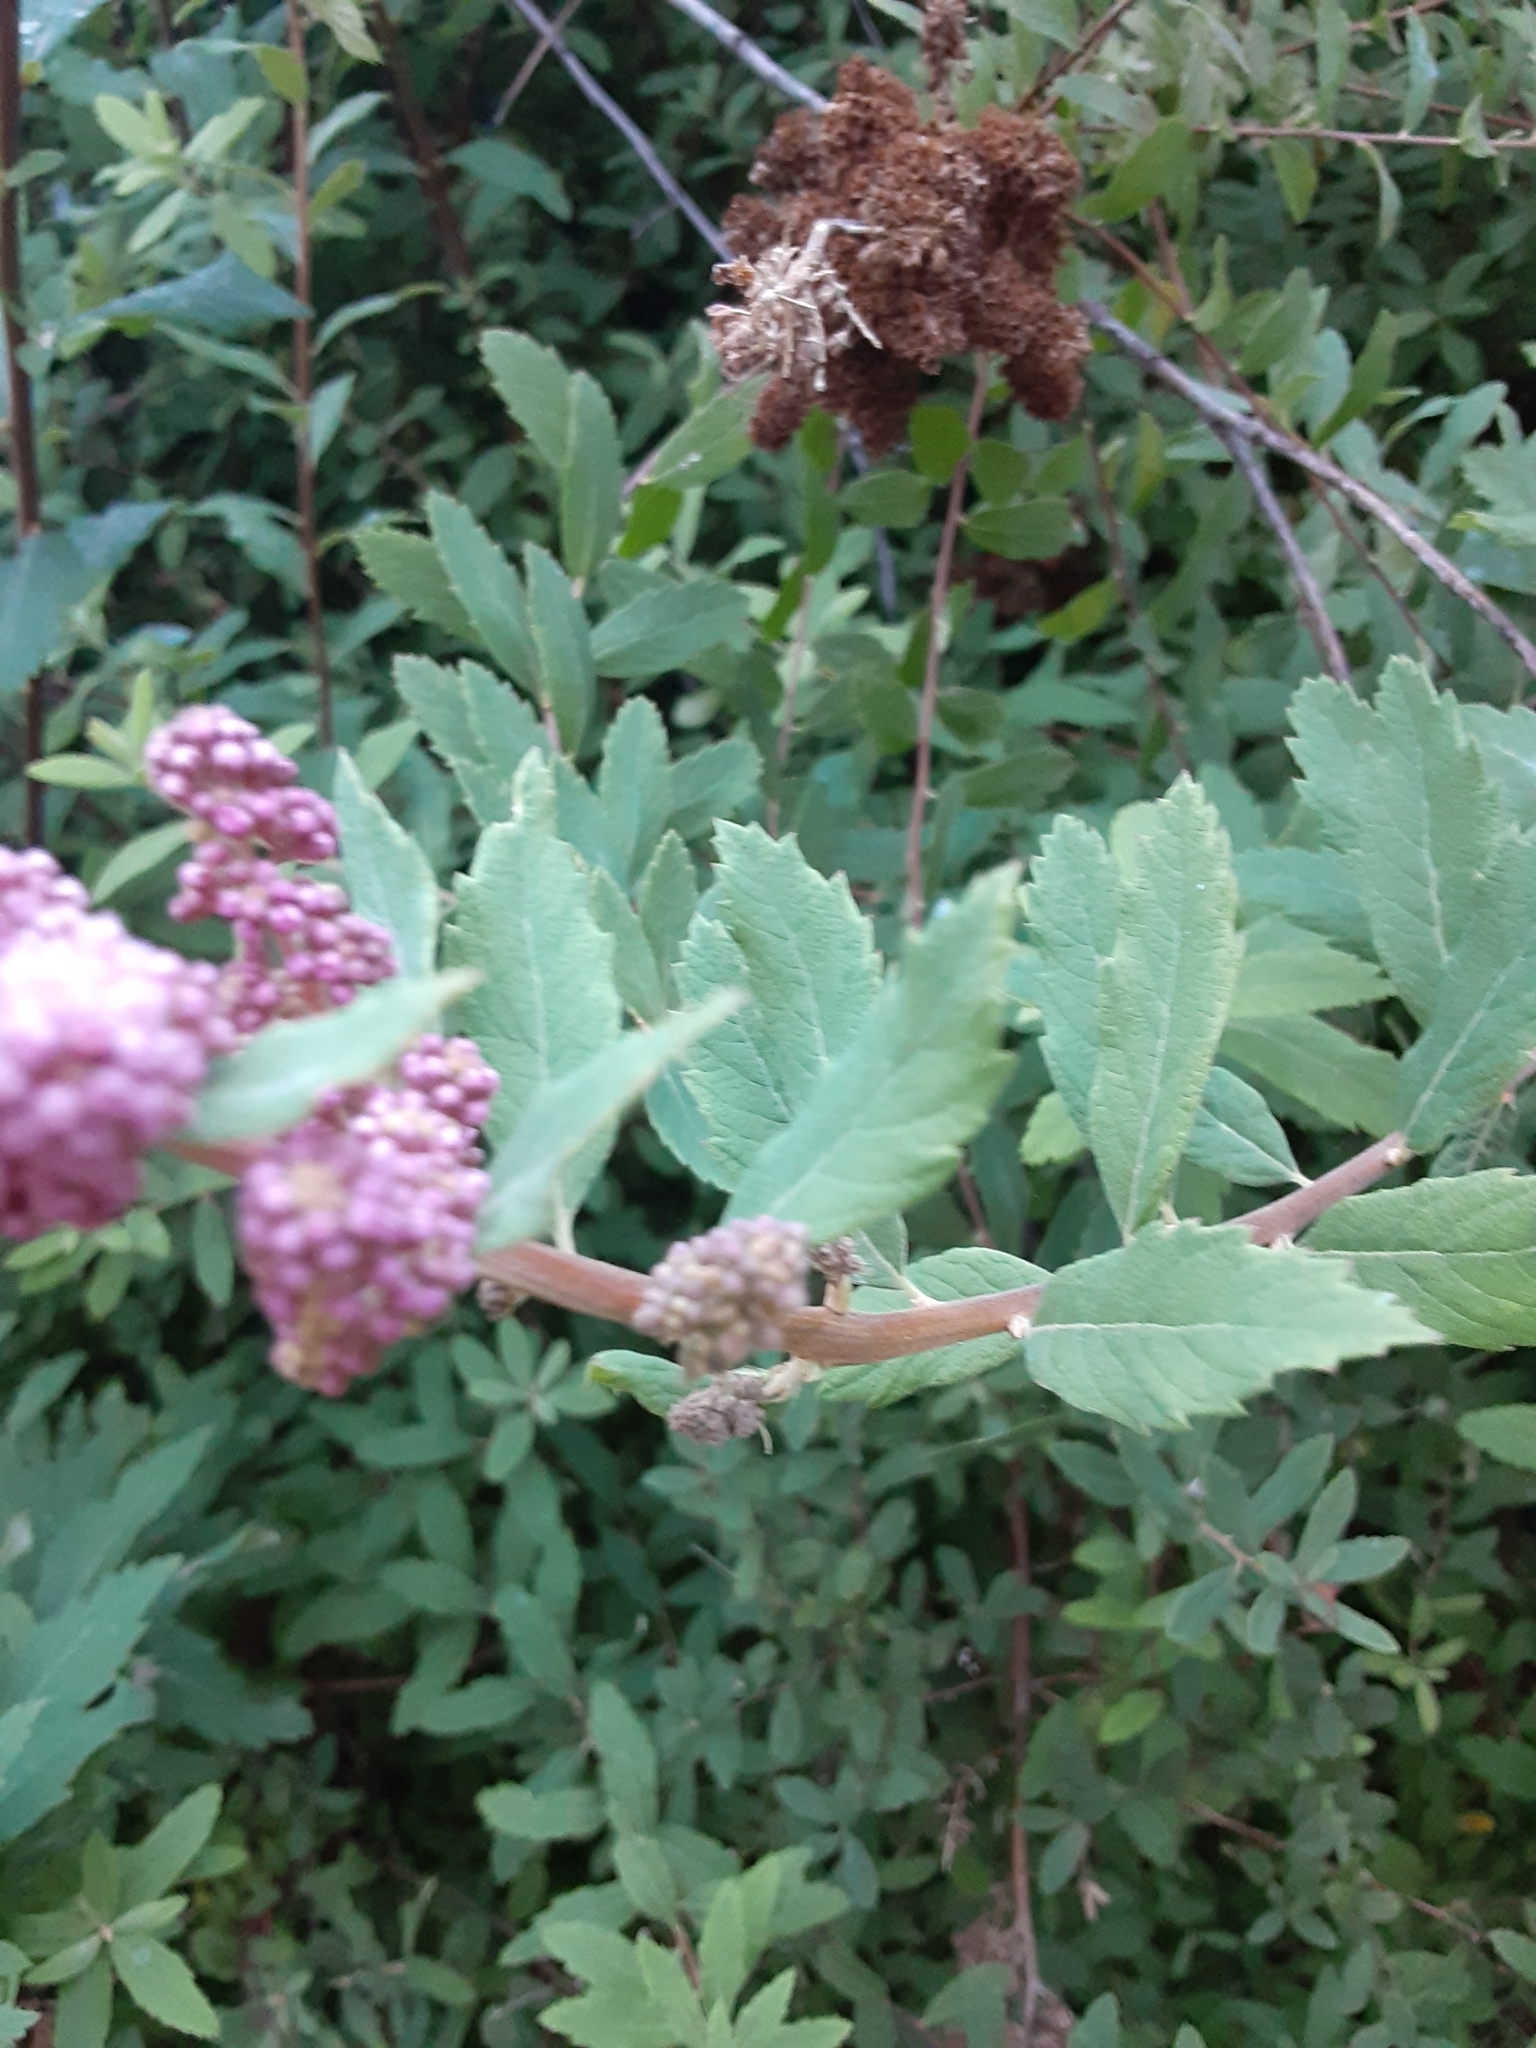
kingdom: Plantae
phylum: Tracheophyta
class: Magnoliopsida
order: Rosales
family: Rosaceae
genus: Spiraea
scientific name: Spiraea douglasii
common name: Steeplebush
